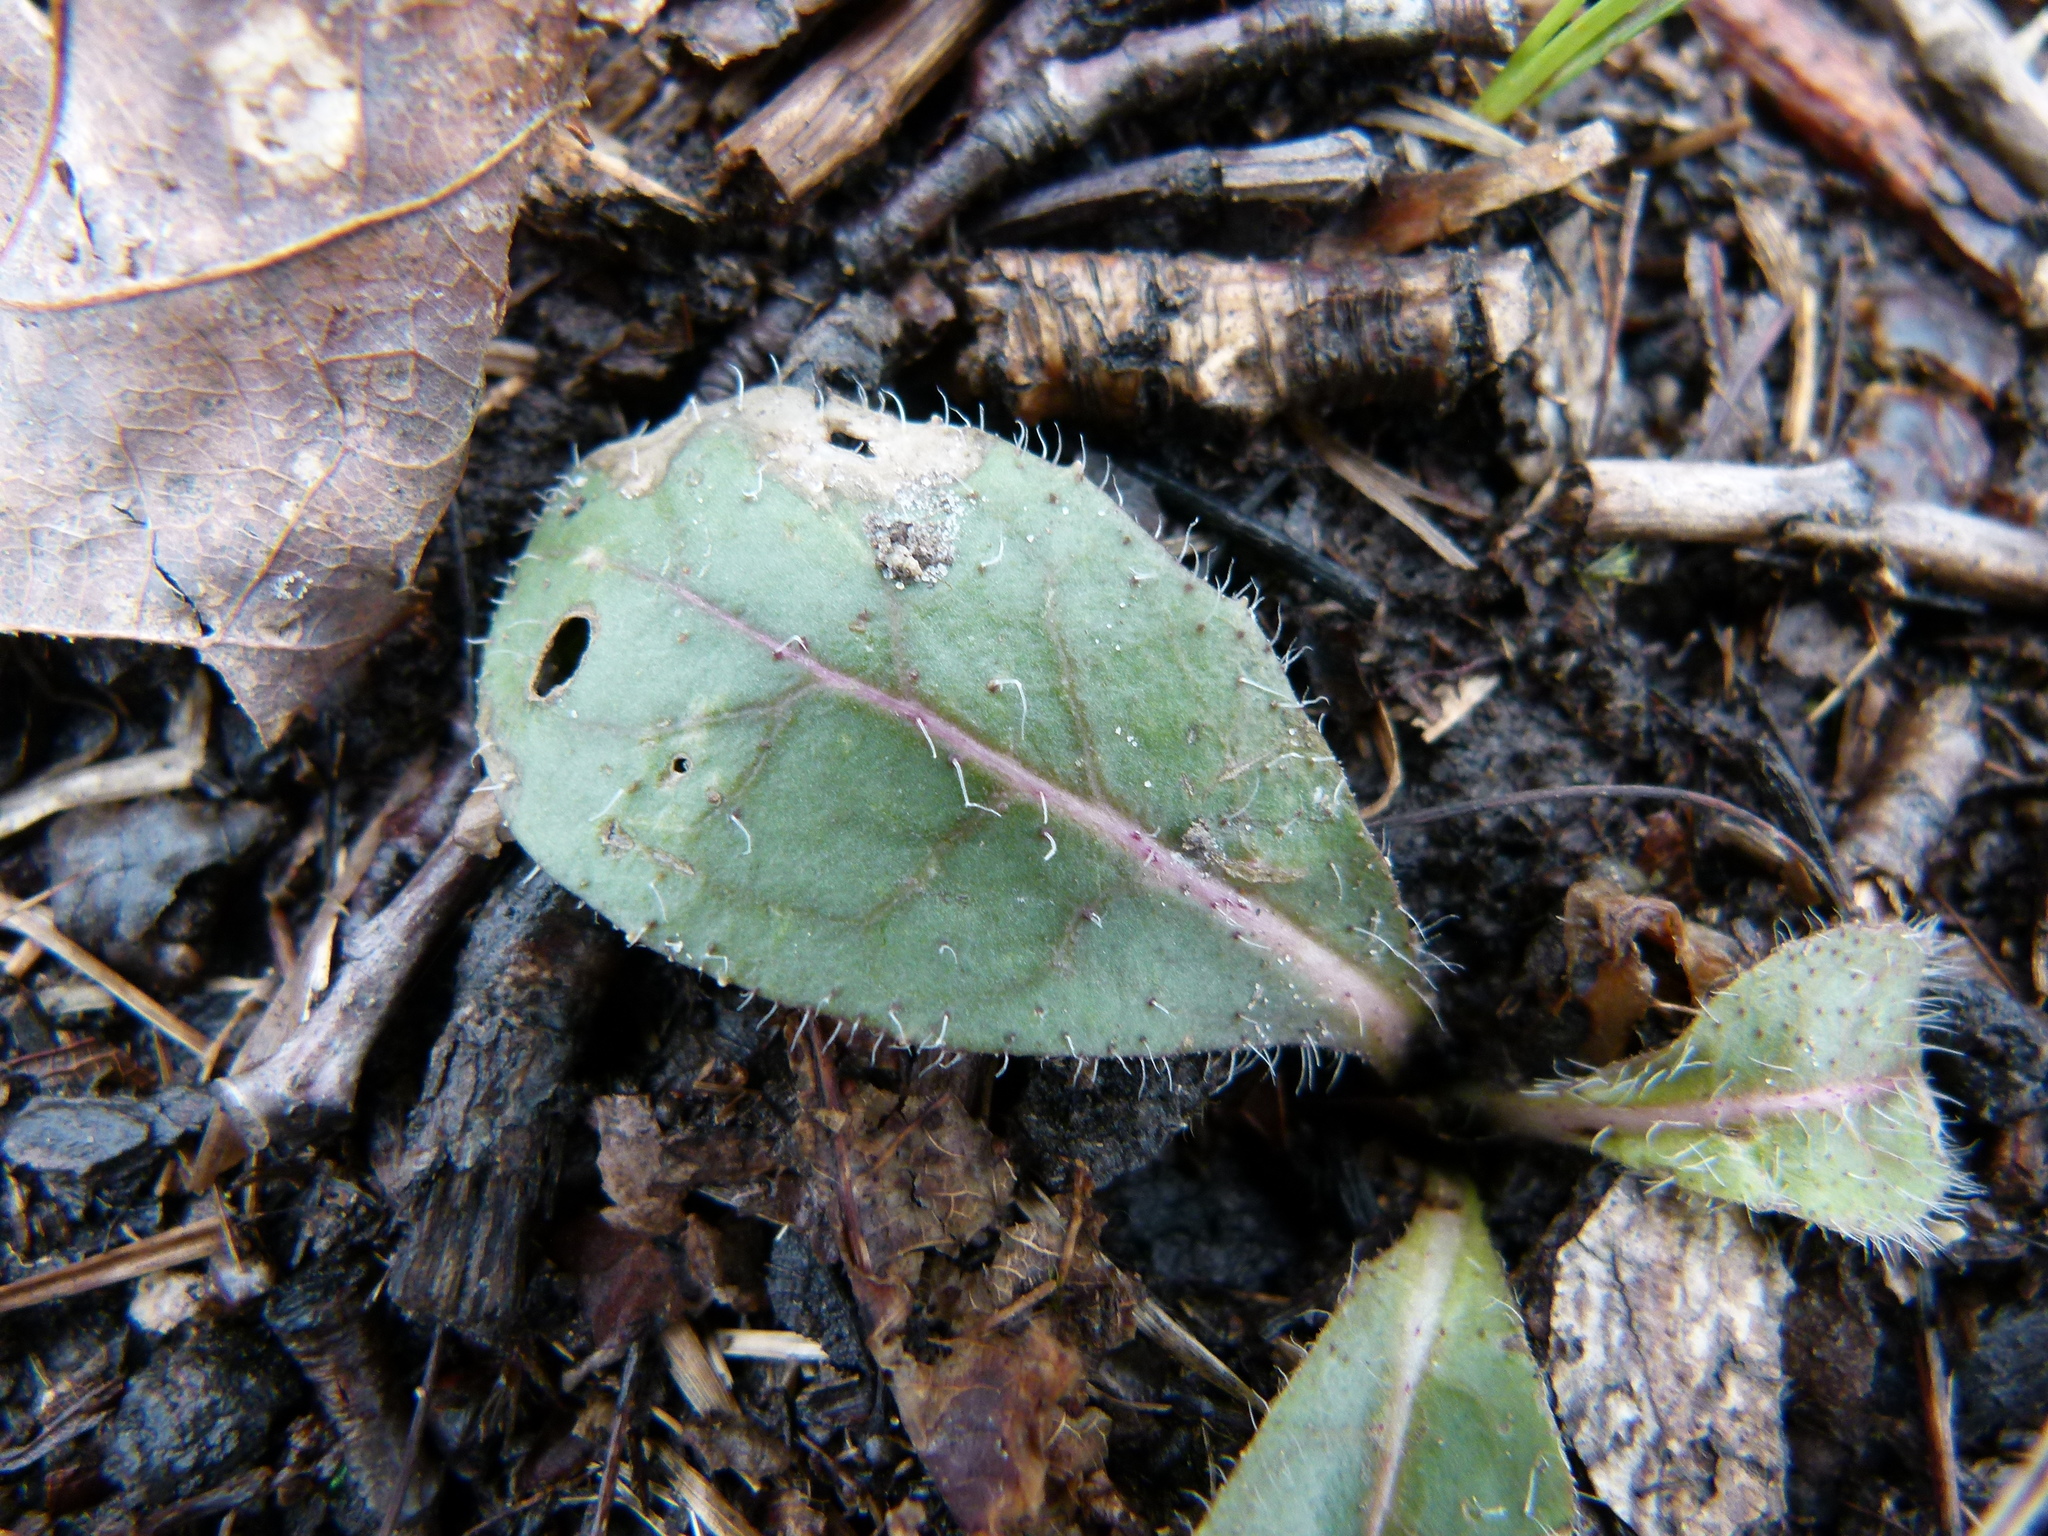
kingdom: Plantae
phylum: Tracheophyta
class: Magnoliopsida
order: Asterales
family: Asteraceae
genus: Hieracium
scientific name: Hieracium venosum
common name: Rattlesnake hawkweed
